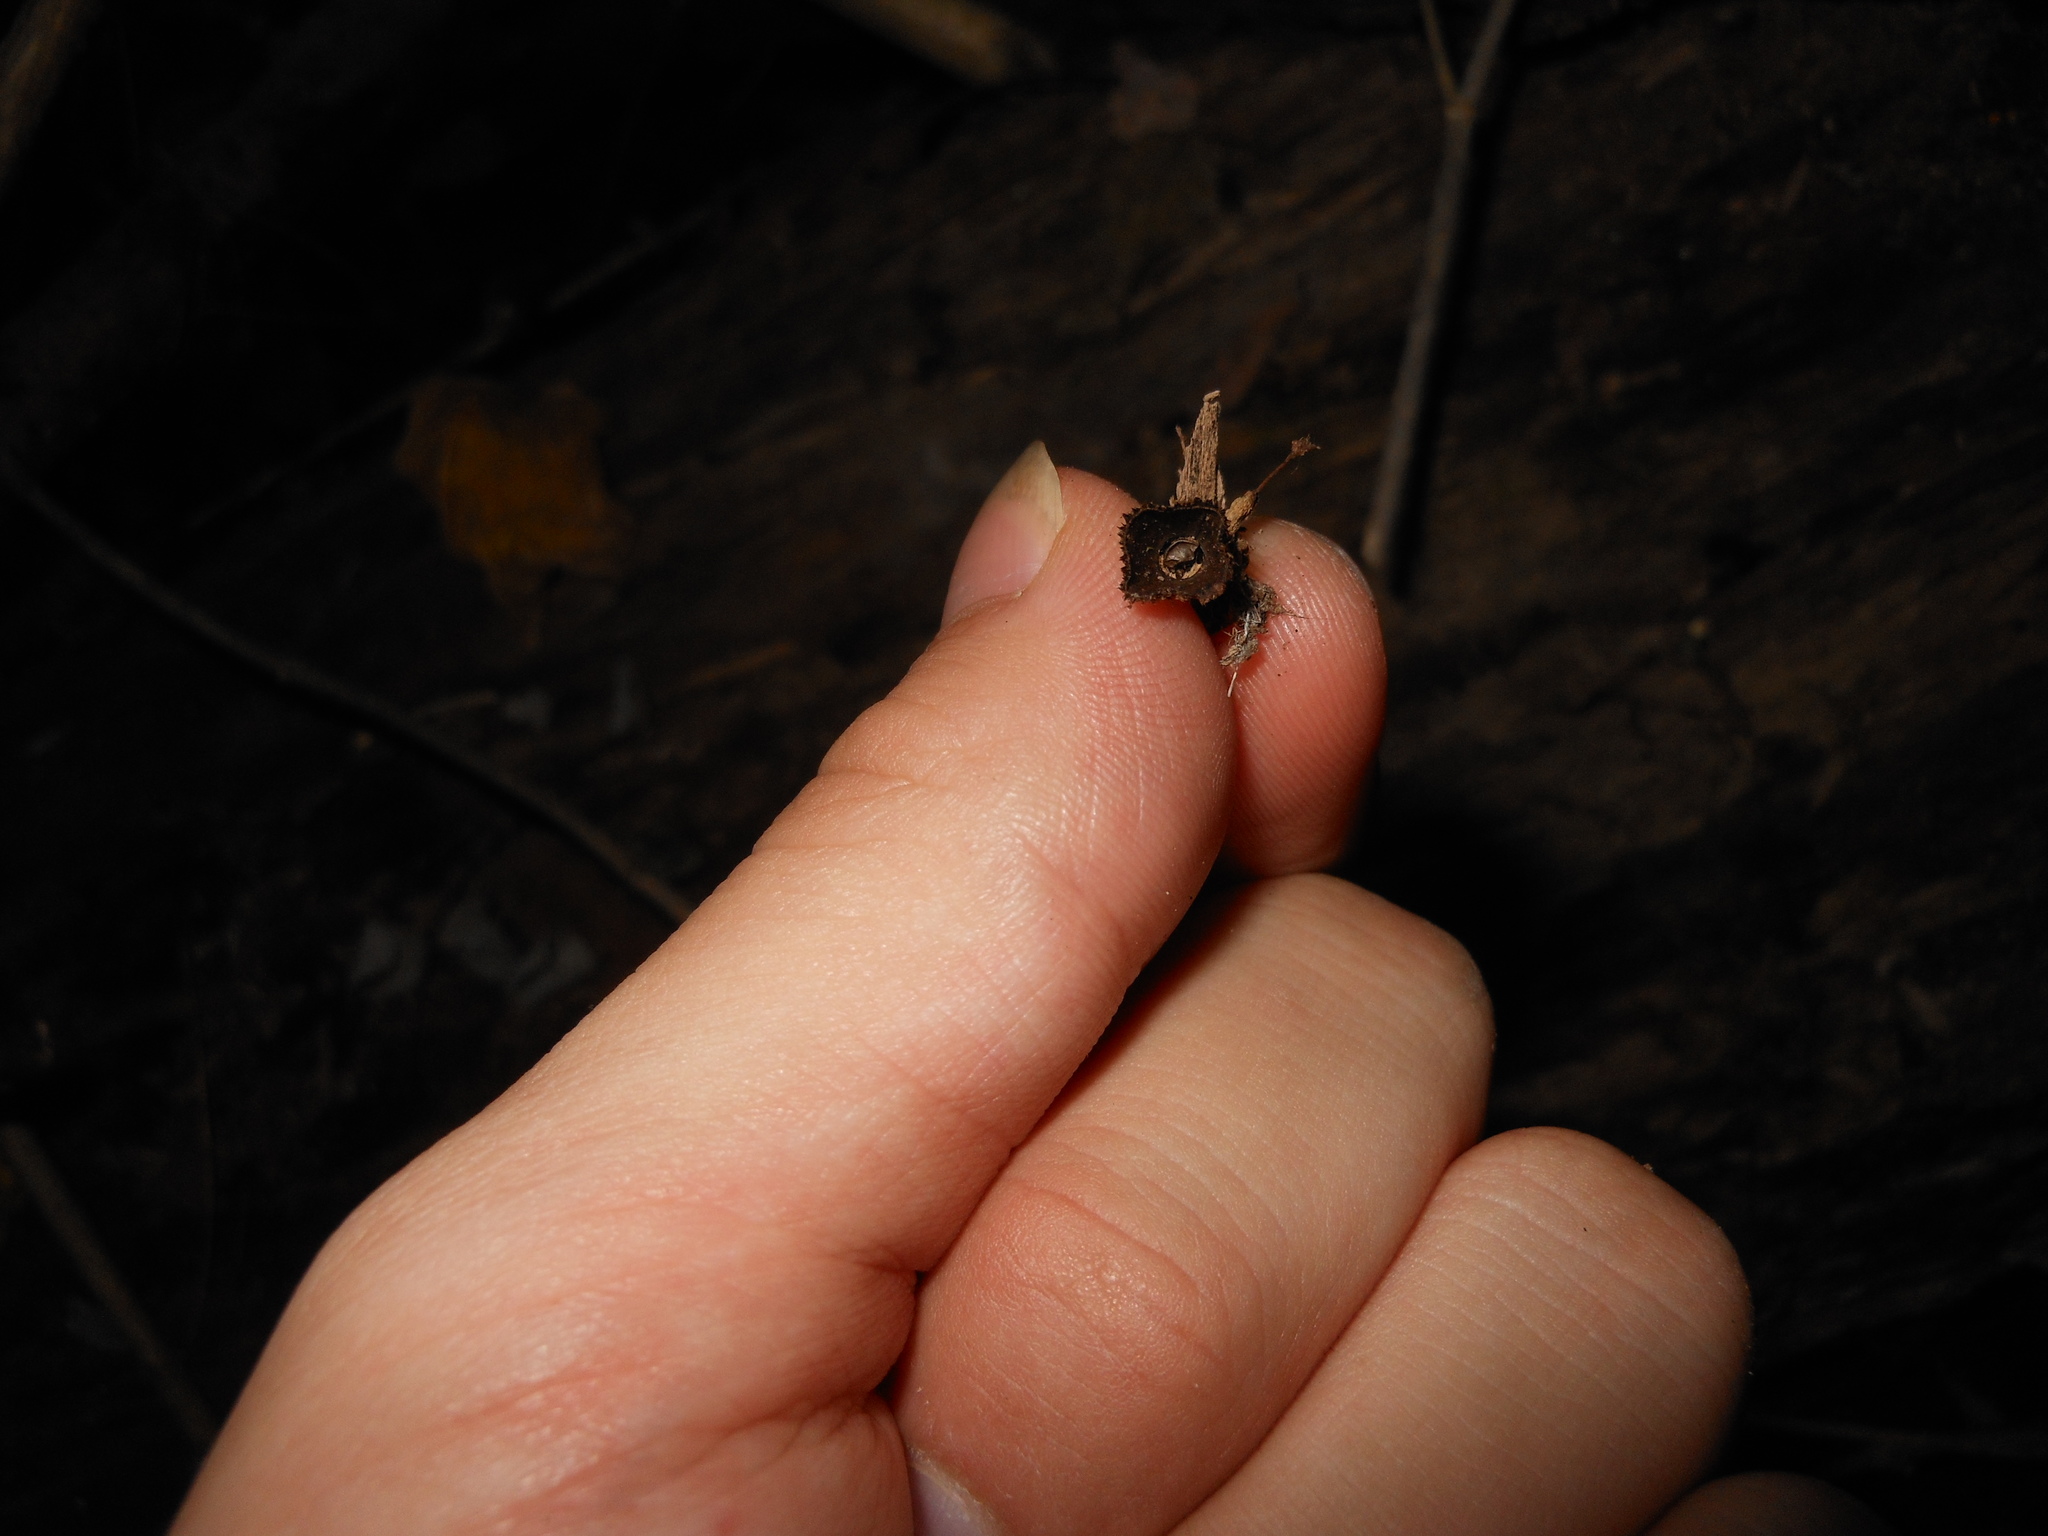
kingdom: Fungi
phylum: Basidiomycota
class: Agaricomycetes
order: Agaricales
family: Agaricaceae
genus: Cyathus
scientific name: Cyathus striatus
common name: Fluted bird's nest
